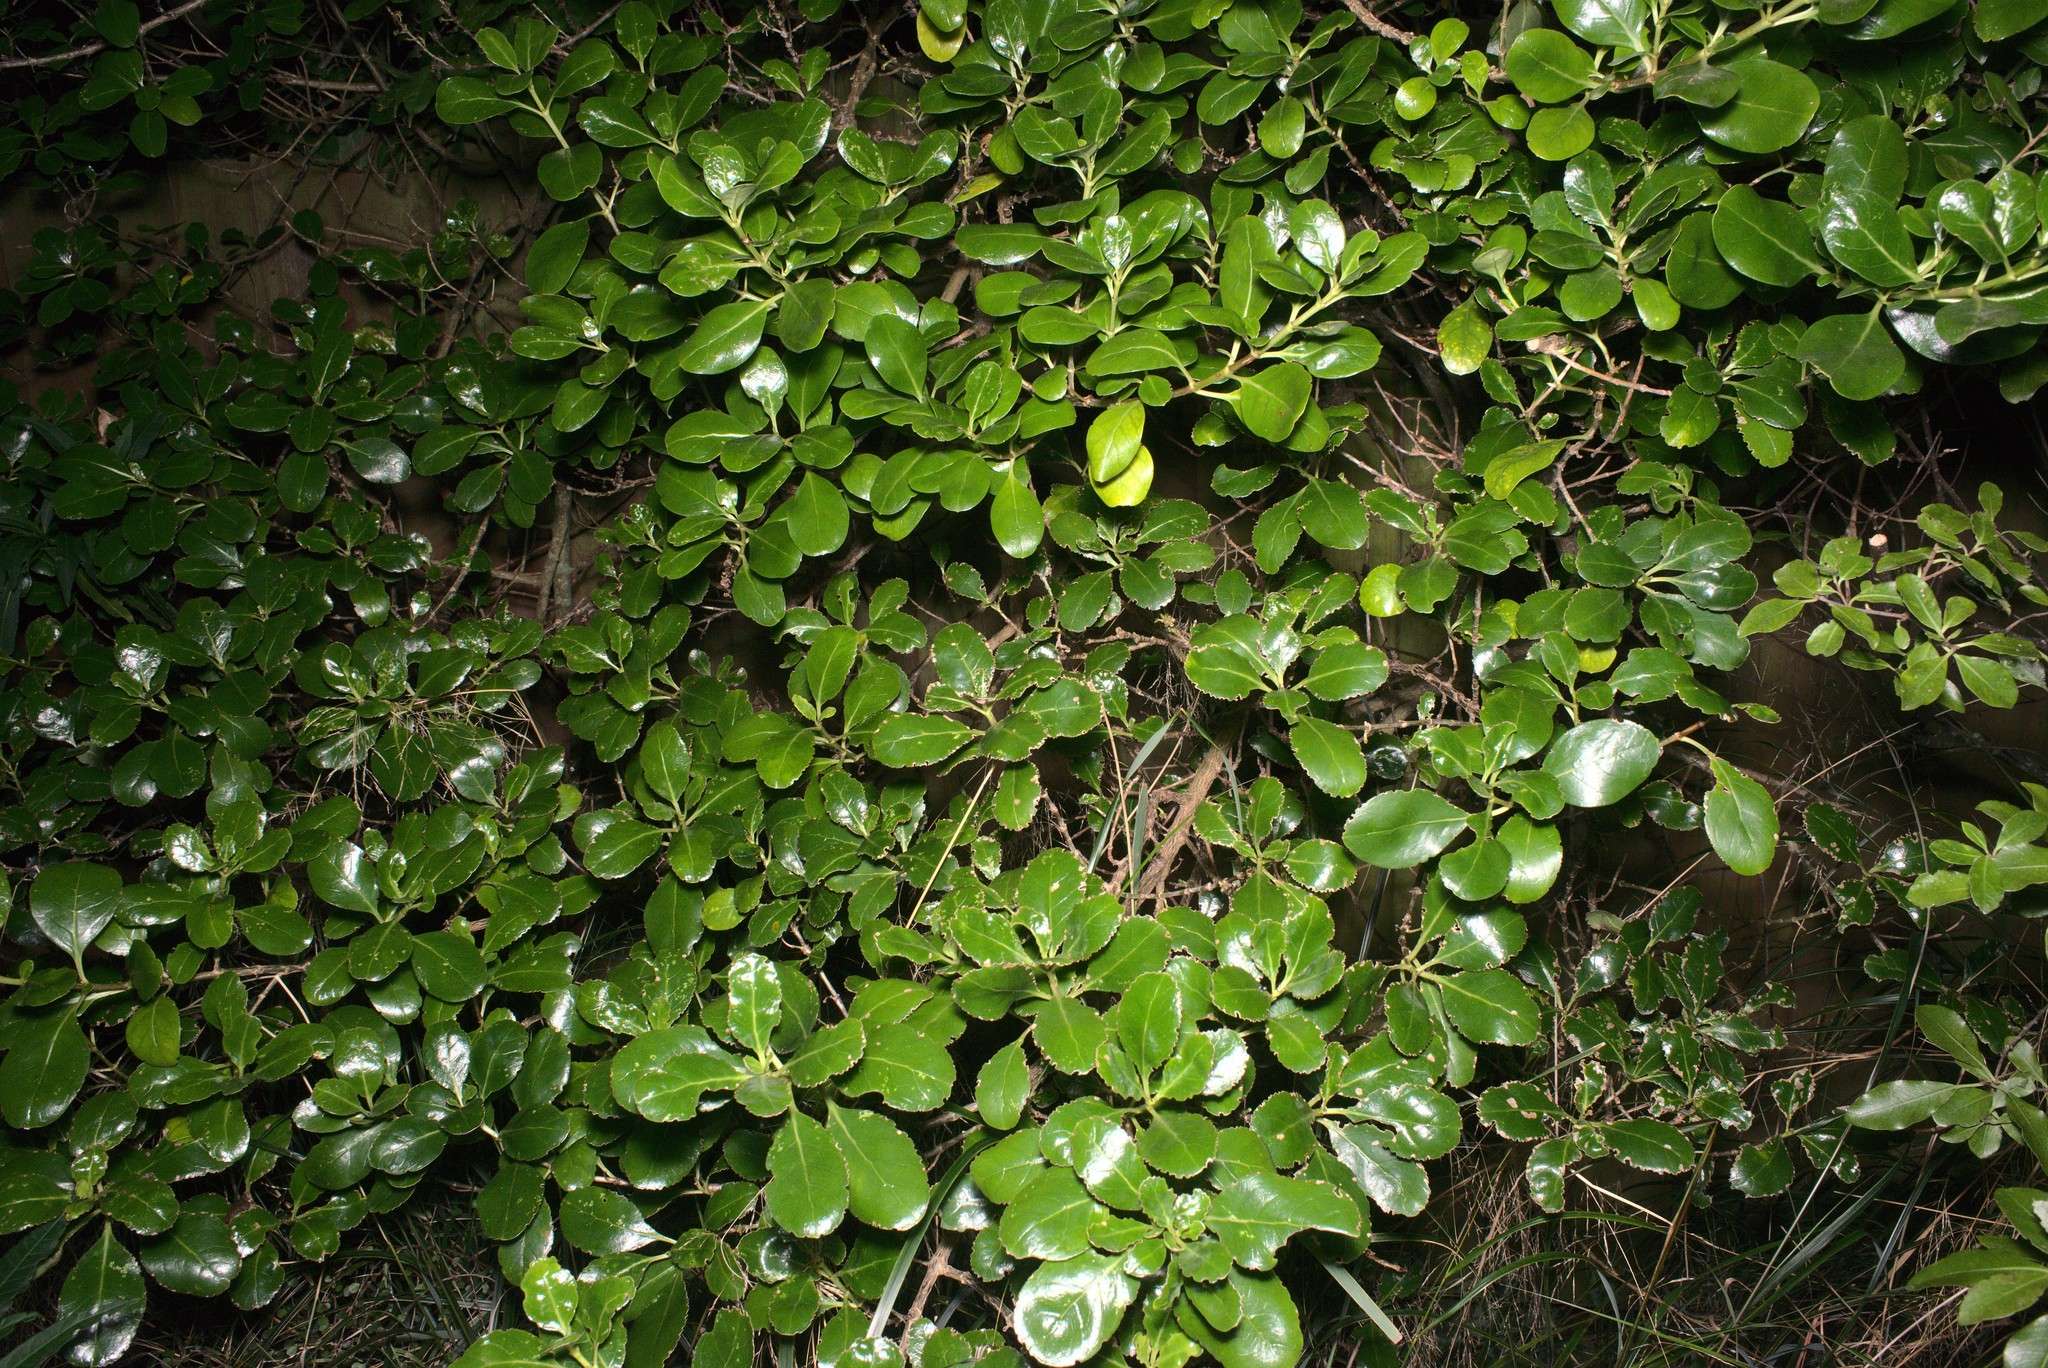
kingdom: Plantae
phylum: Tracheophyta
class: Magnoliopsida
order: Gentianales
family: Rubiaceae
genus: Coprosma
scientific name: Coprosma repens
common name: Tree bedstraw
